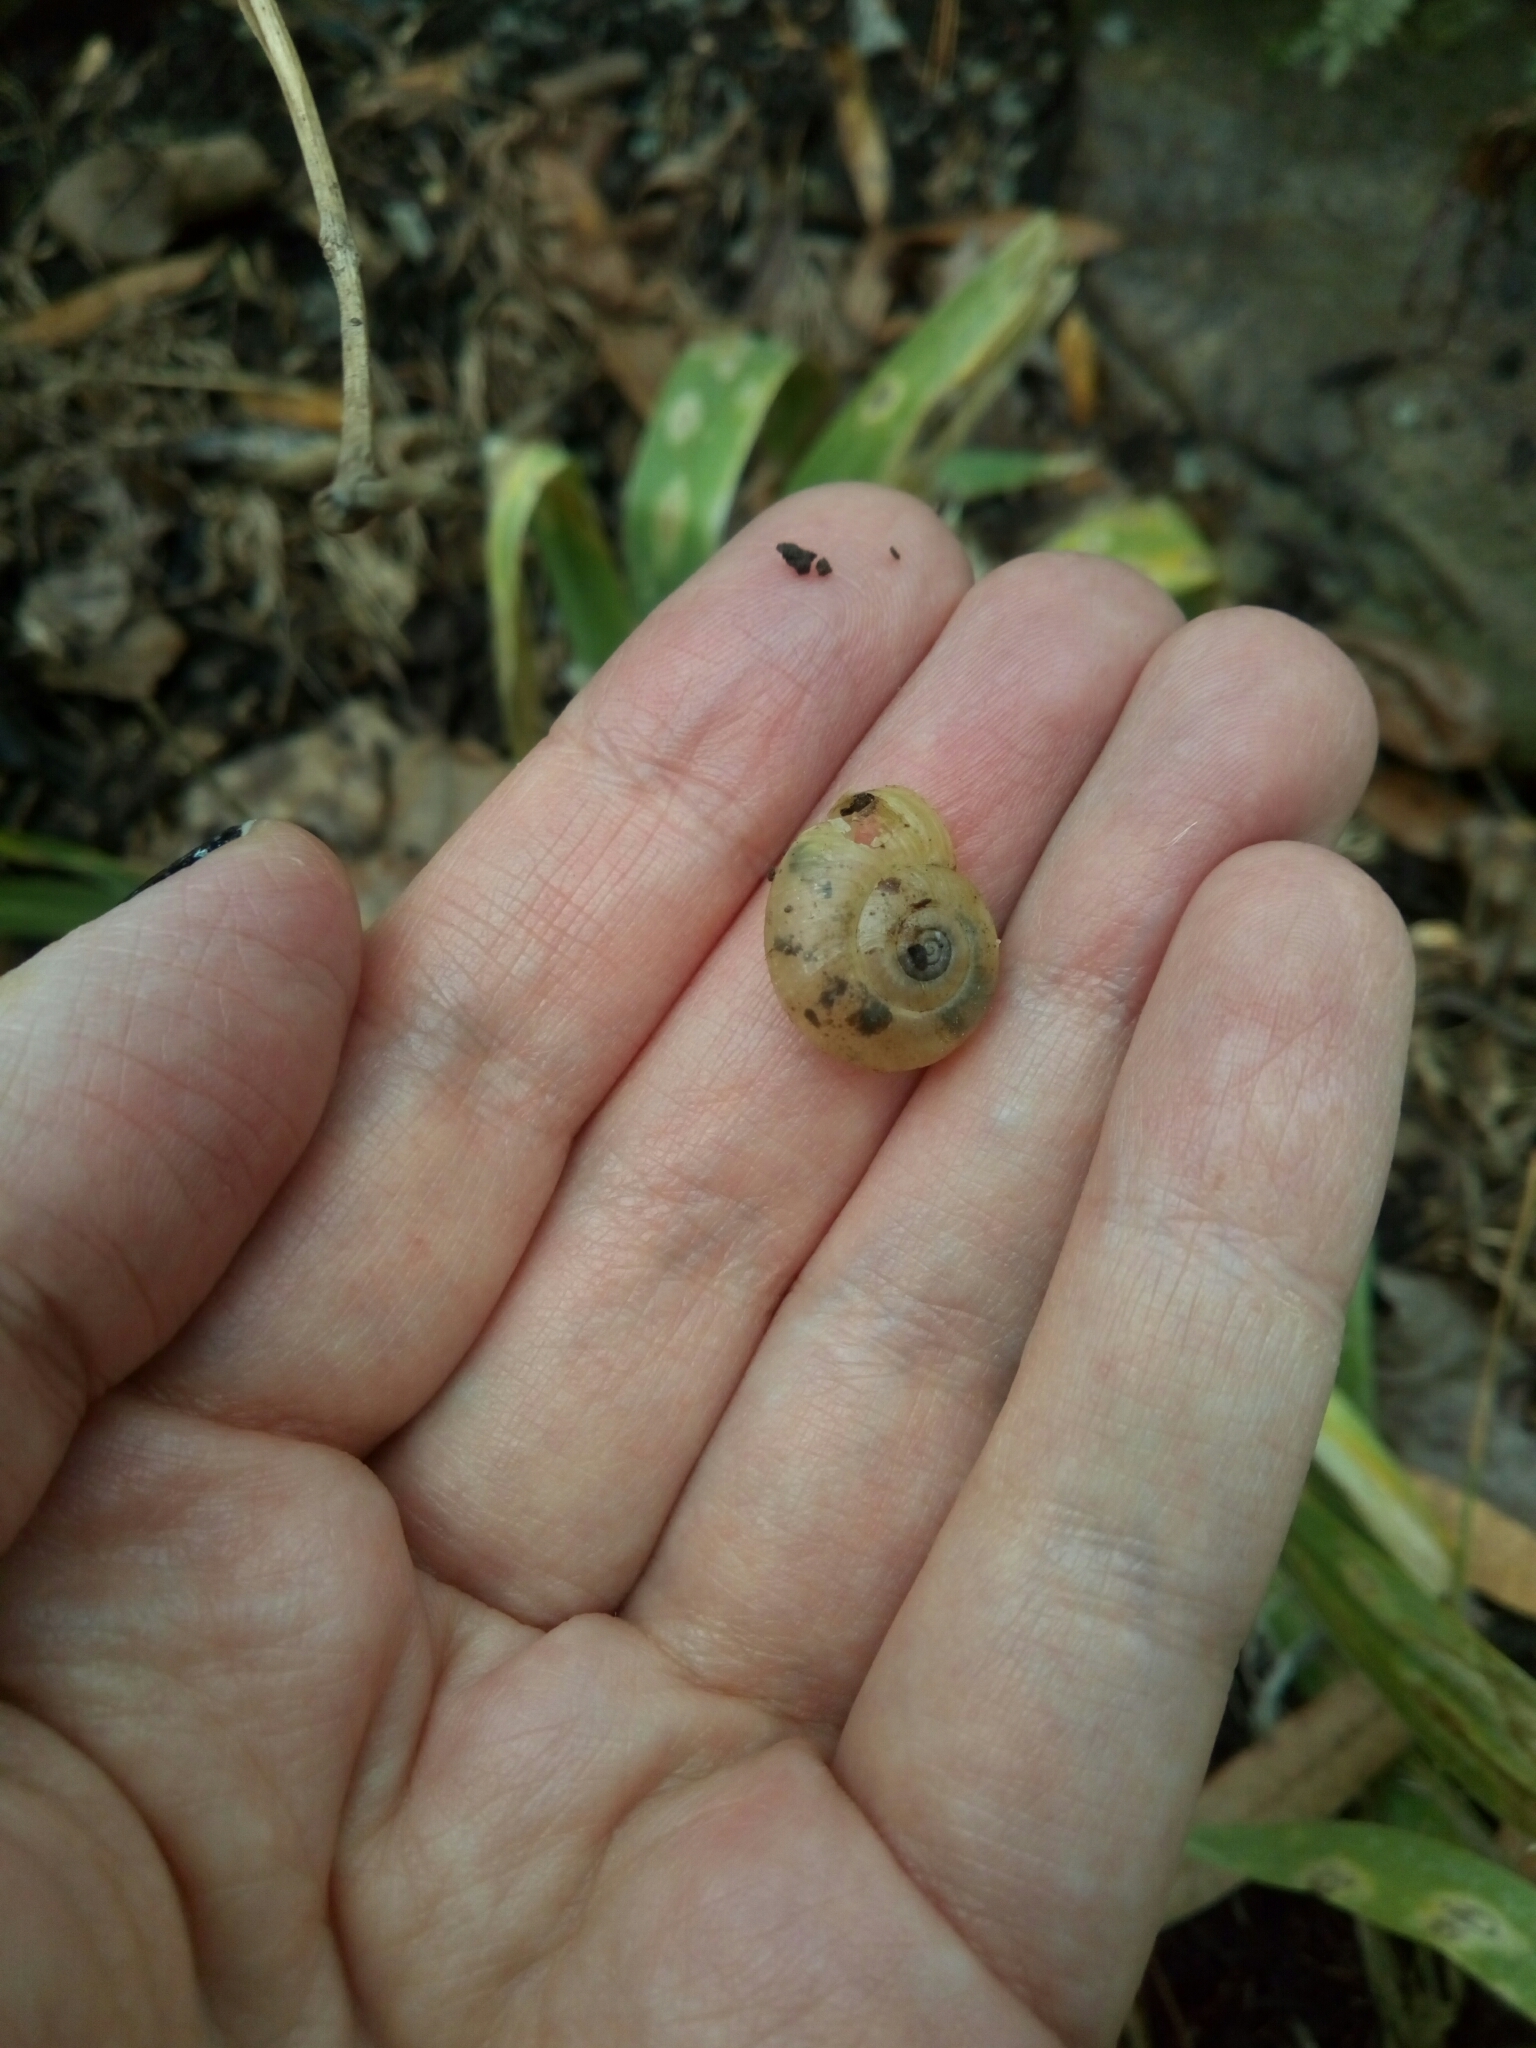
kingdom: Animalia
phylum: Mollusca
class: Gastropoda
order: Stylommatophora
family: Haplotrematidae
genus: Haplotrema
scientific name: Haplotrema concavum
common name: Gray-foot lancetooth
